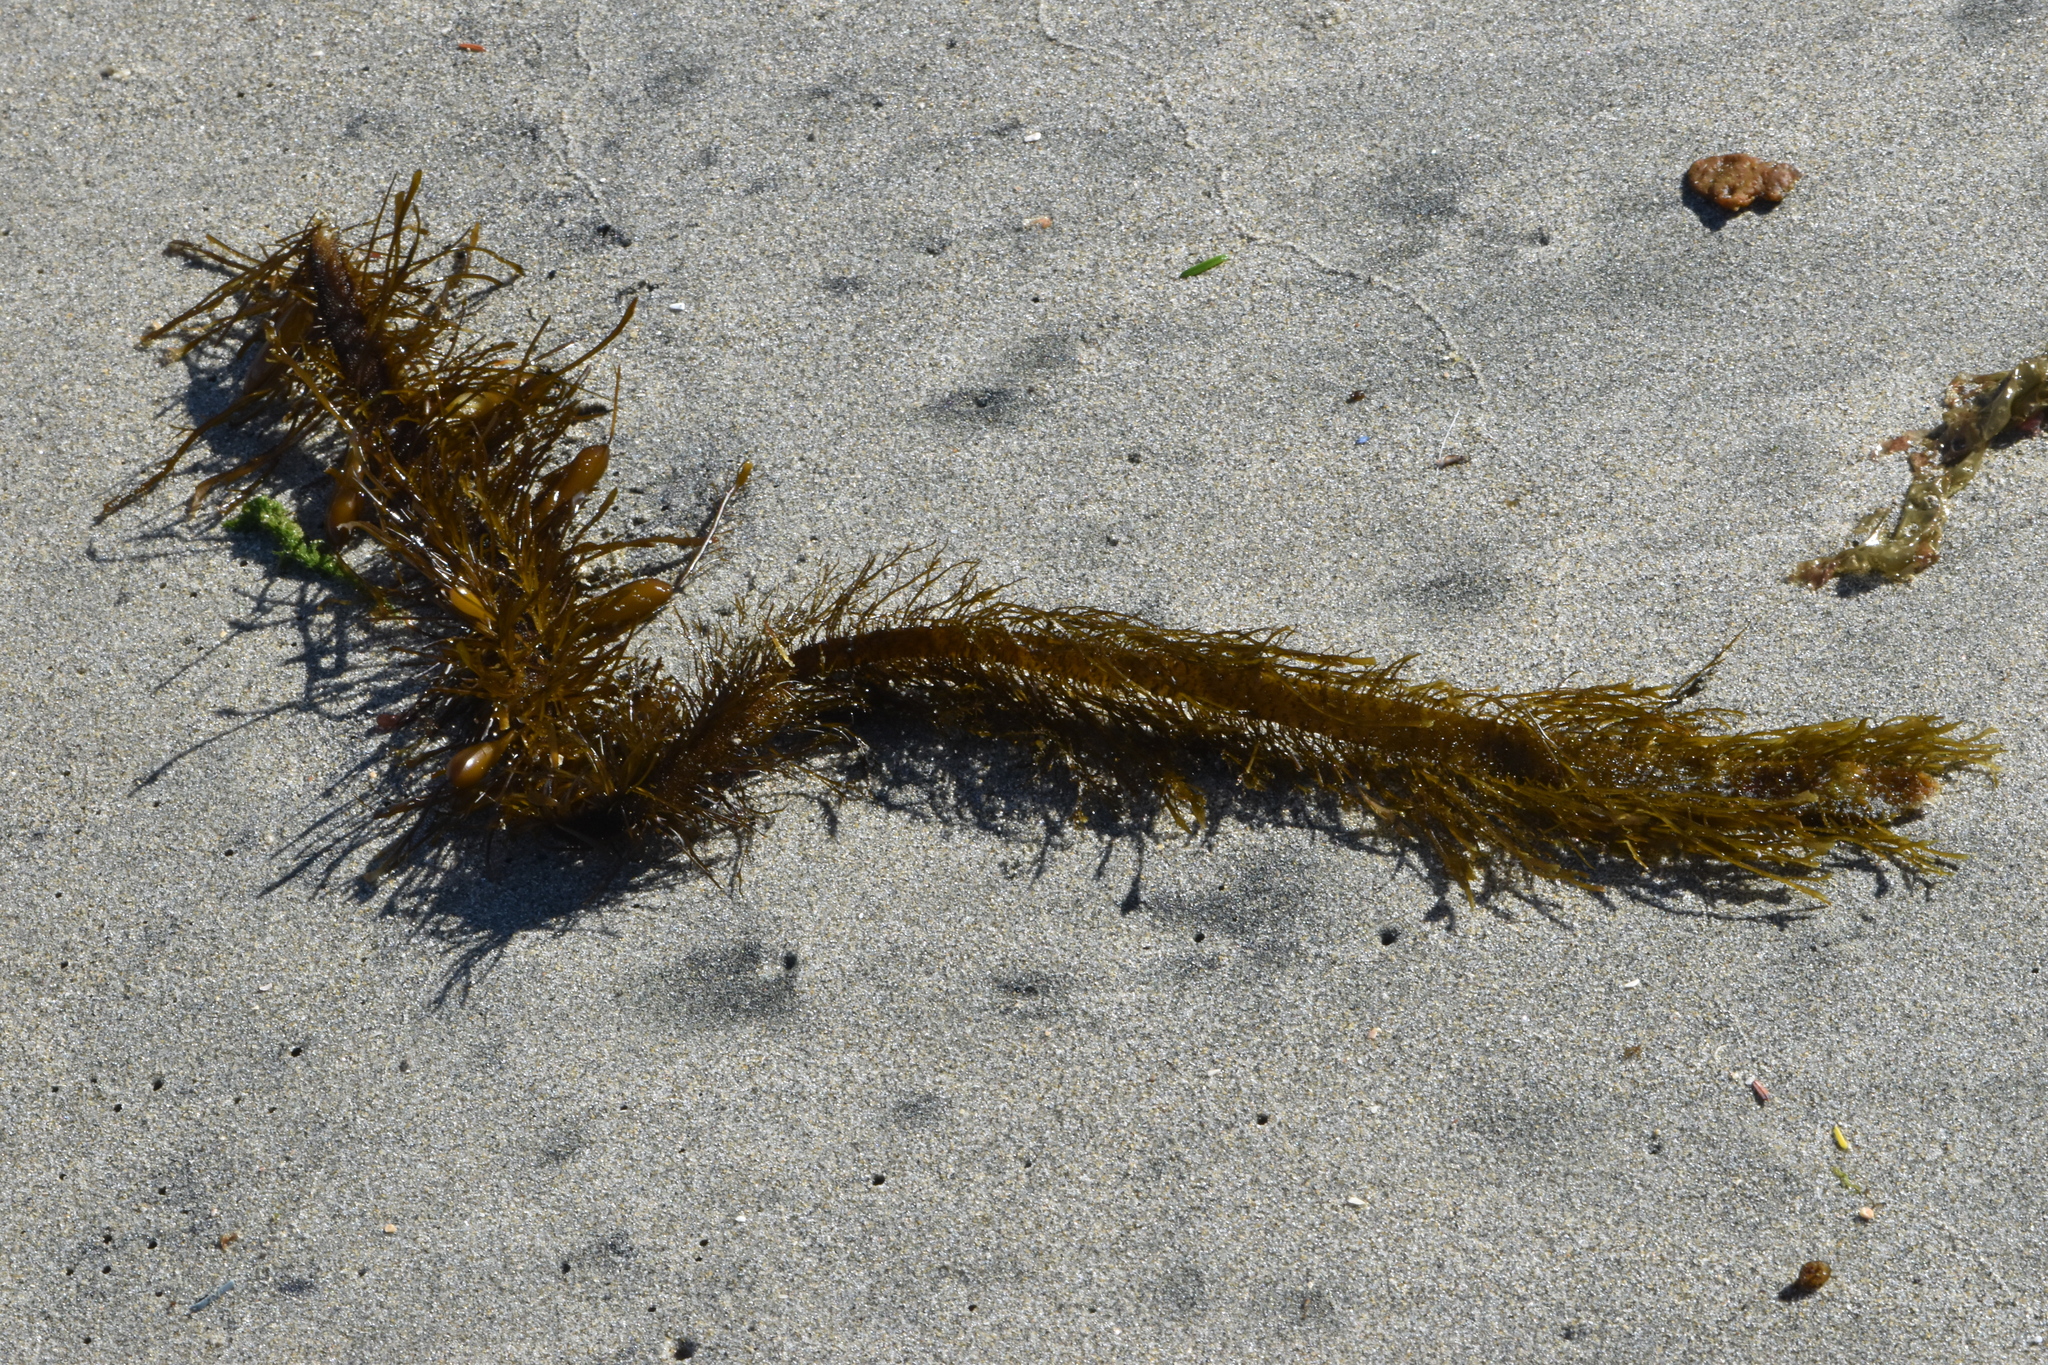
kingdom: Chromista
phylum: Ochrophyta
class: Phaeophyceae
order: Laminariales
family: Lessoniaceae
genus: Egregia
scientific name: Egregia menziesii
